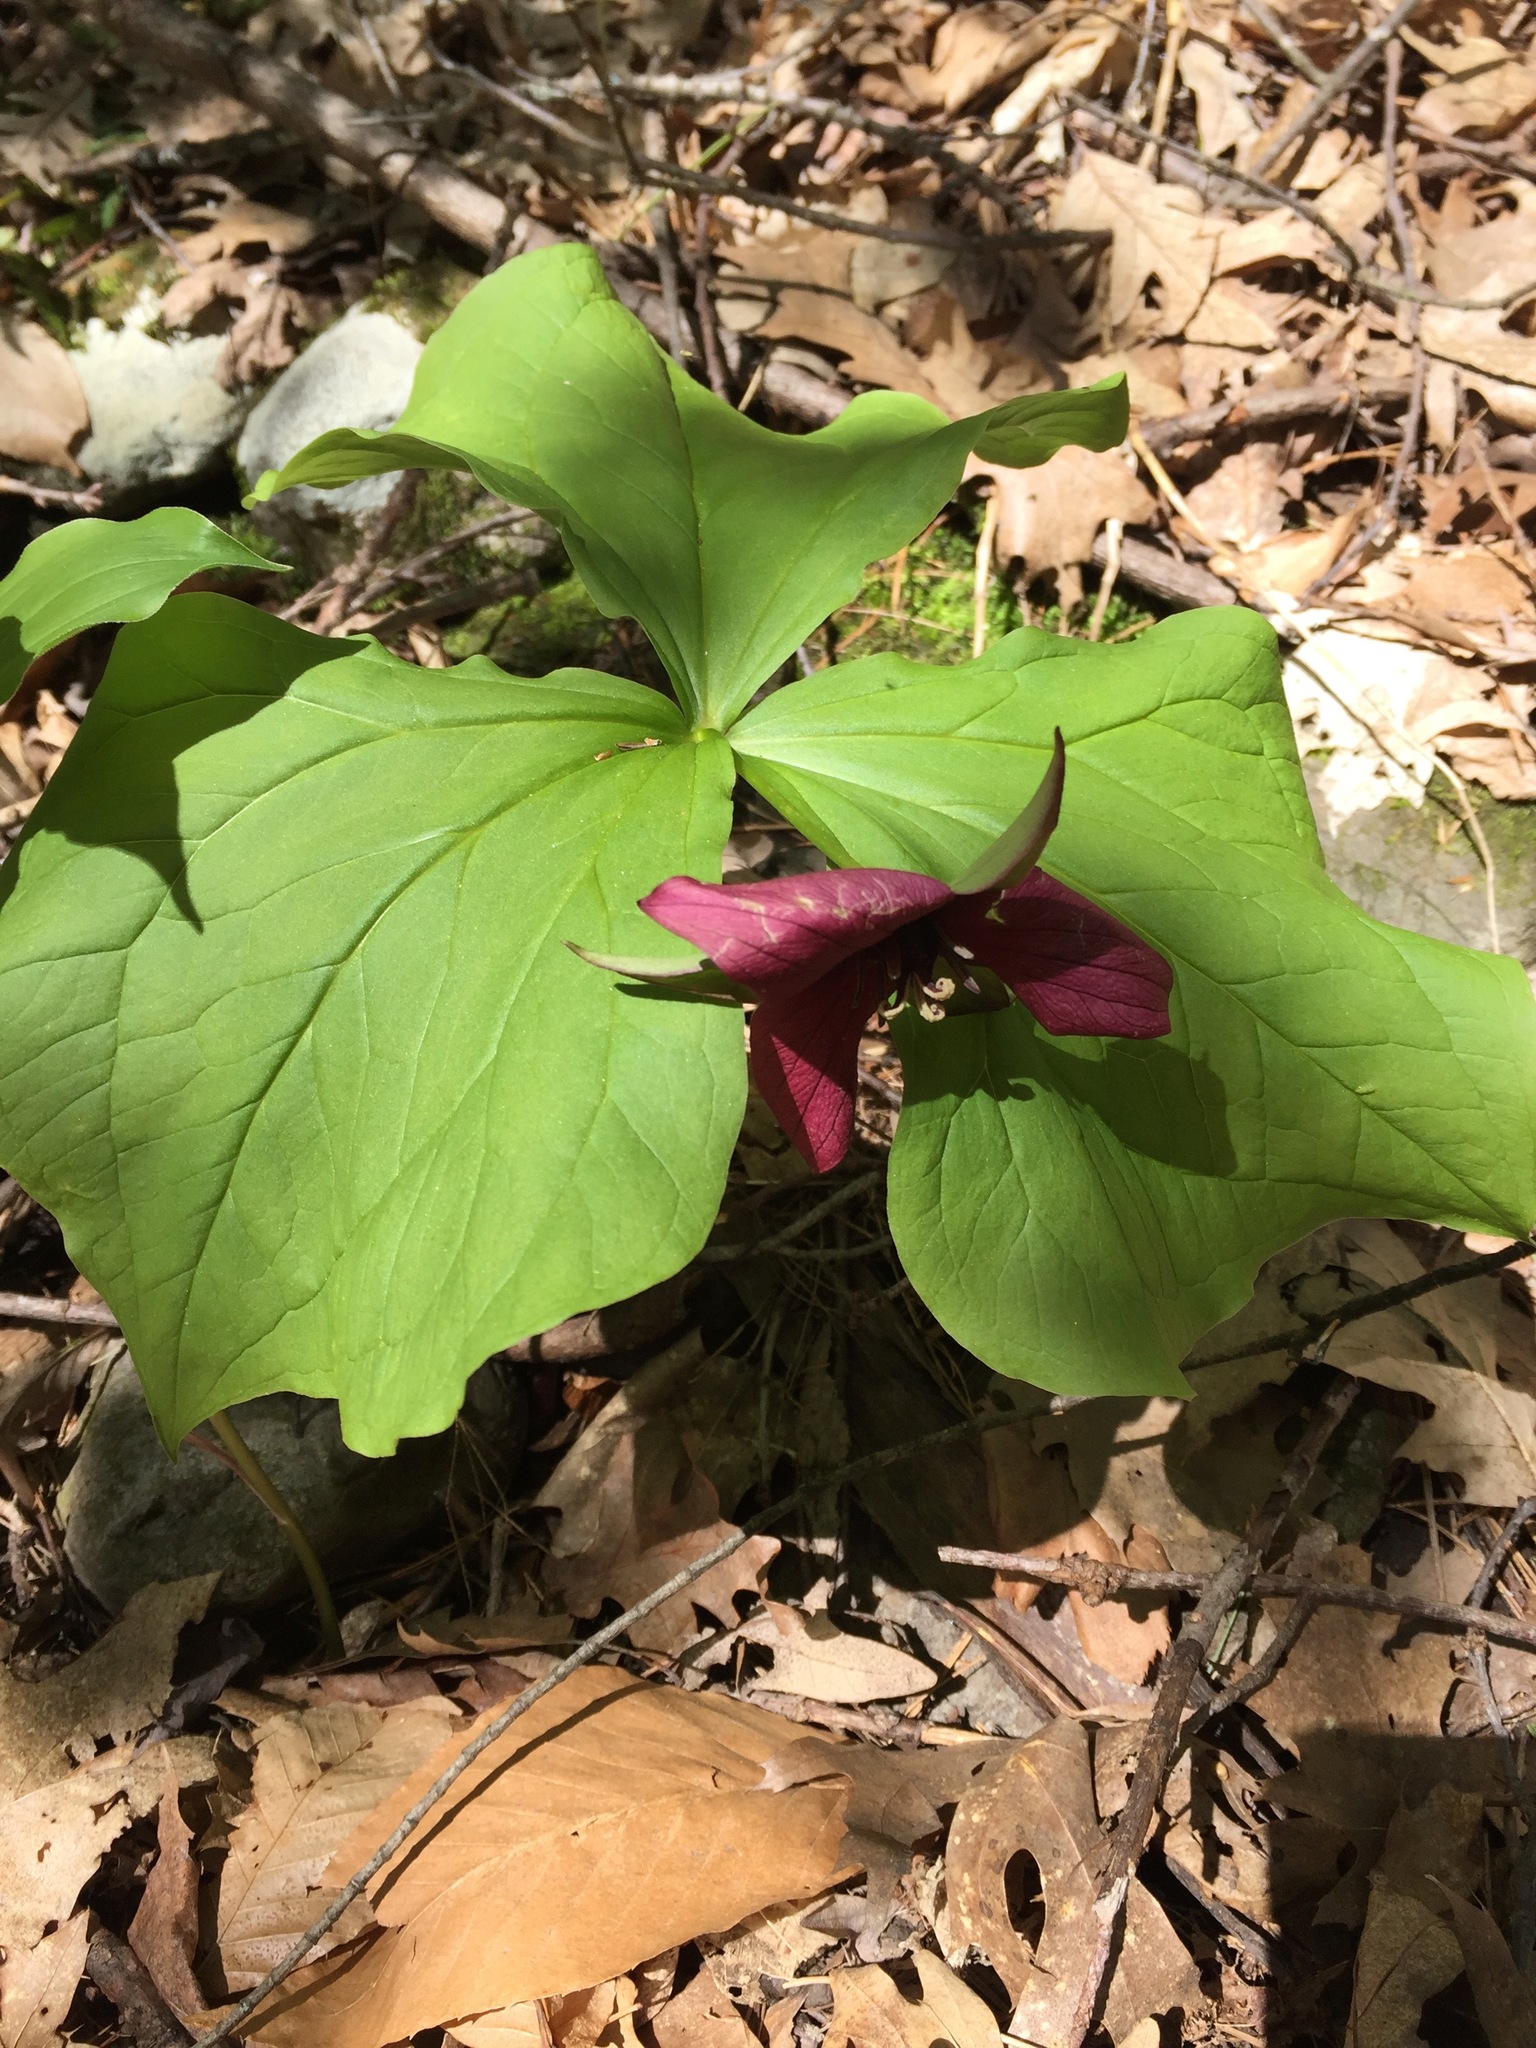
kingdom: Plantae
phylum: Tracheophyta
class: Liliopsida
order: Liliales
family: Melanthiaceae
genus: Trillium
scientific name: Trillium erectum
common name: Purple trillium
